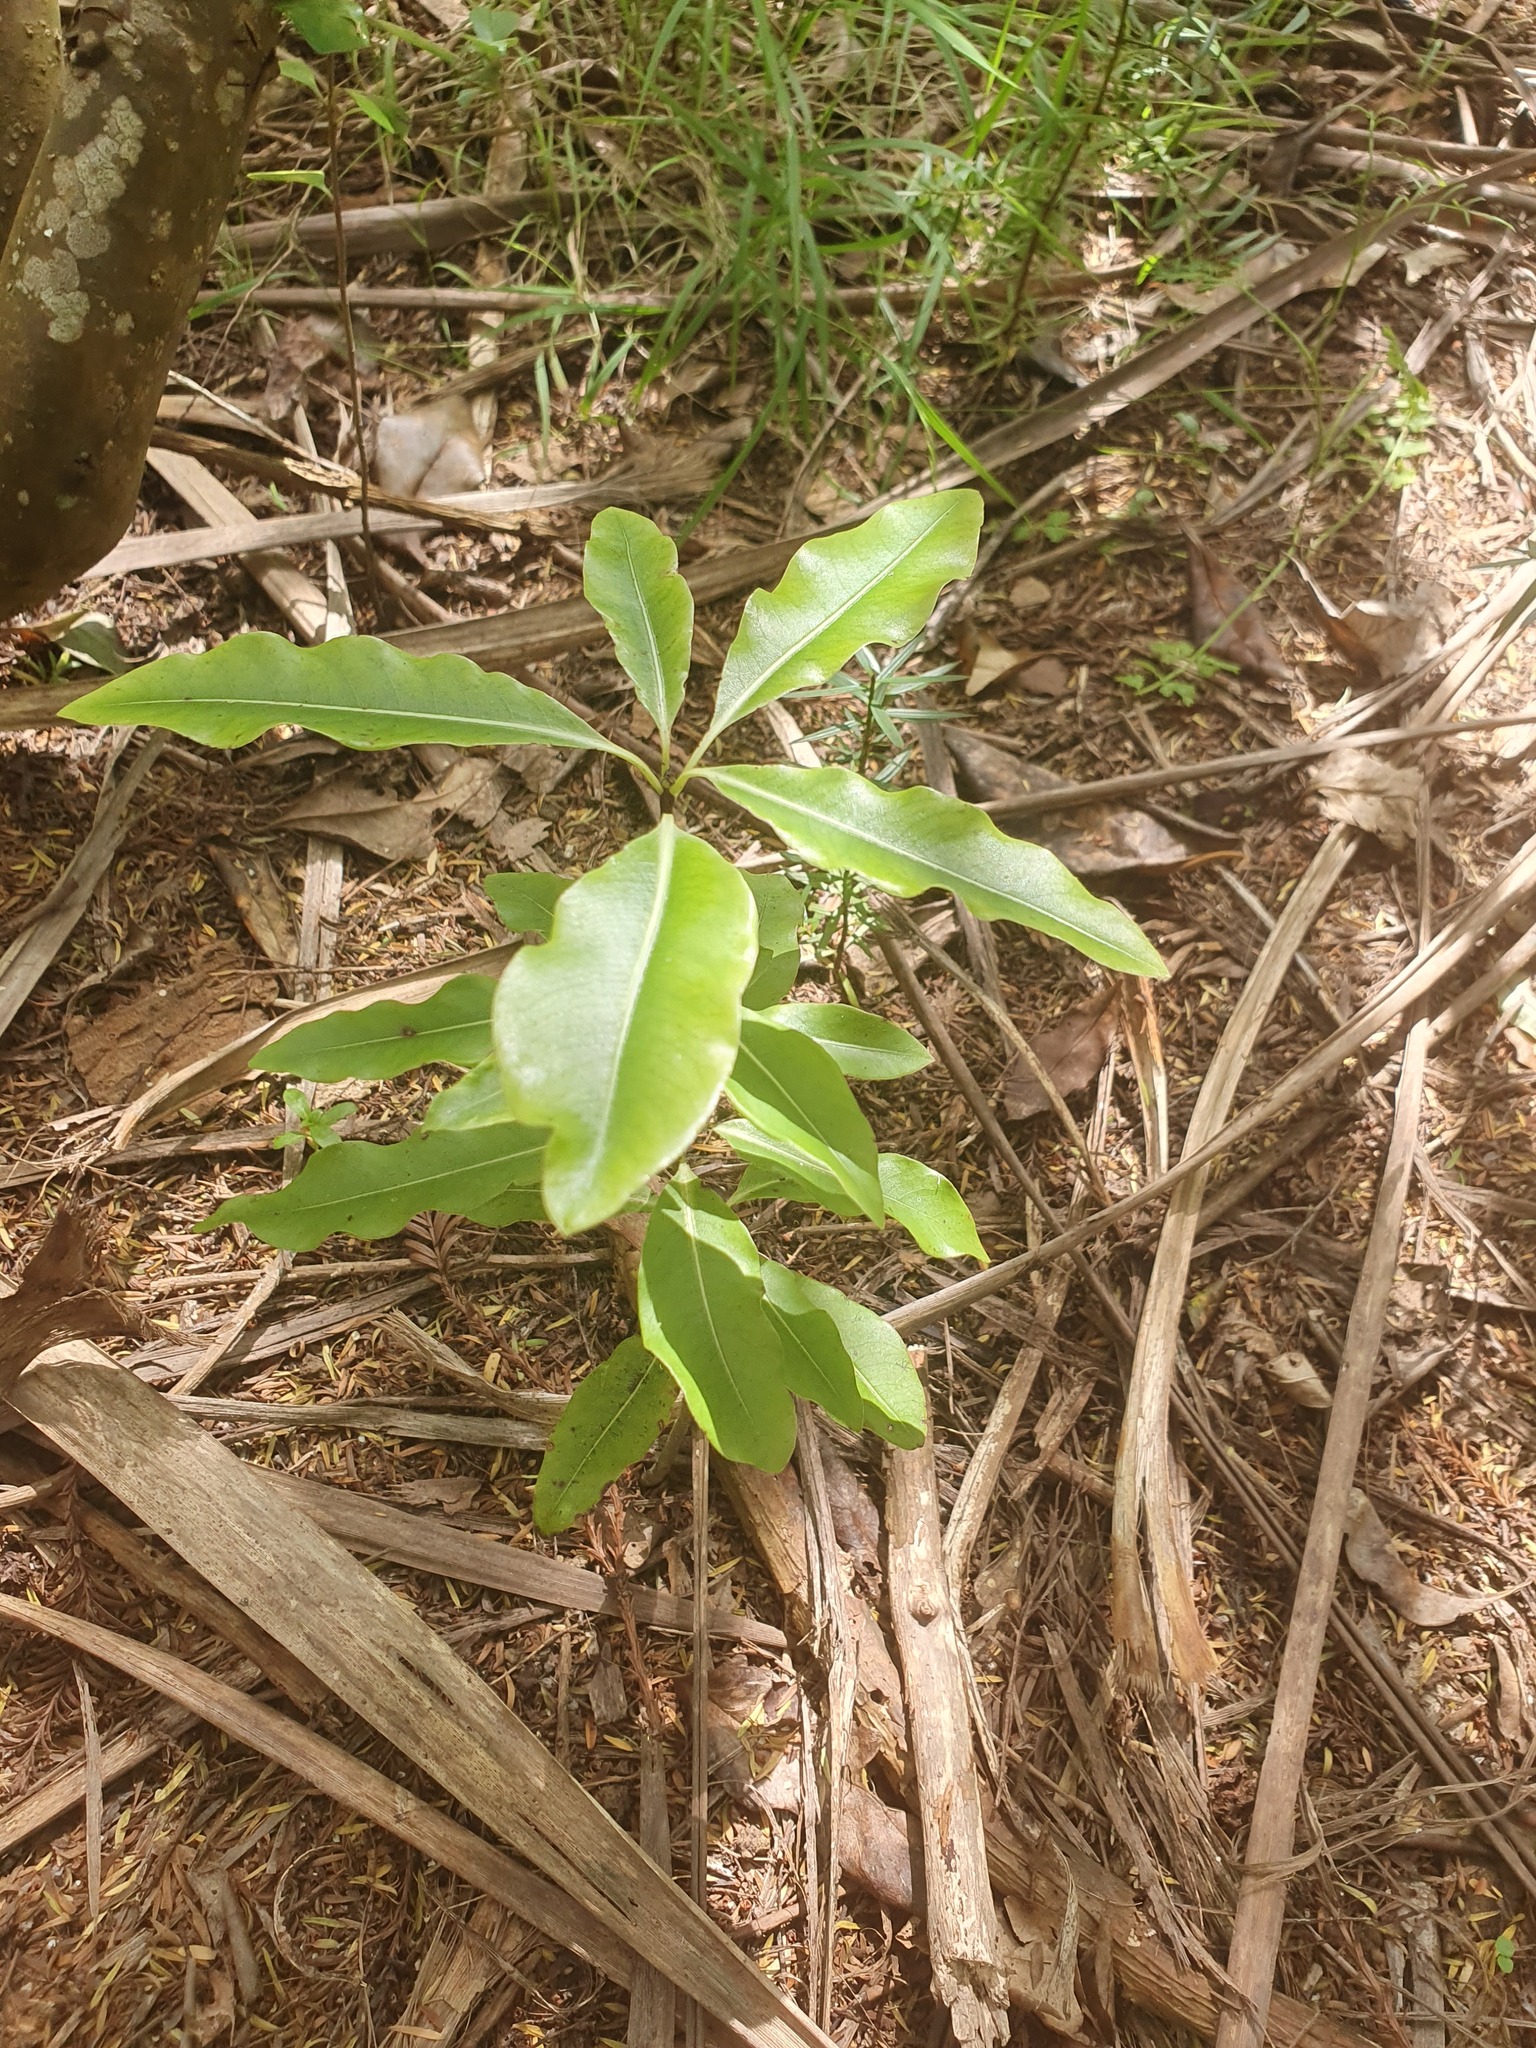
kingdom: Plantae
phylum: Tracheophyta
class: Magnoliopsida
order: Apiales
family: Pittosporaceae
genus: Pittosporum
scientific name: Pittosporum eugenioides
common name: Lemonwood
